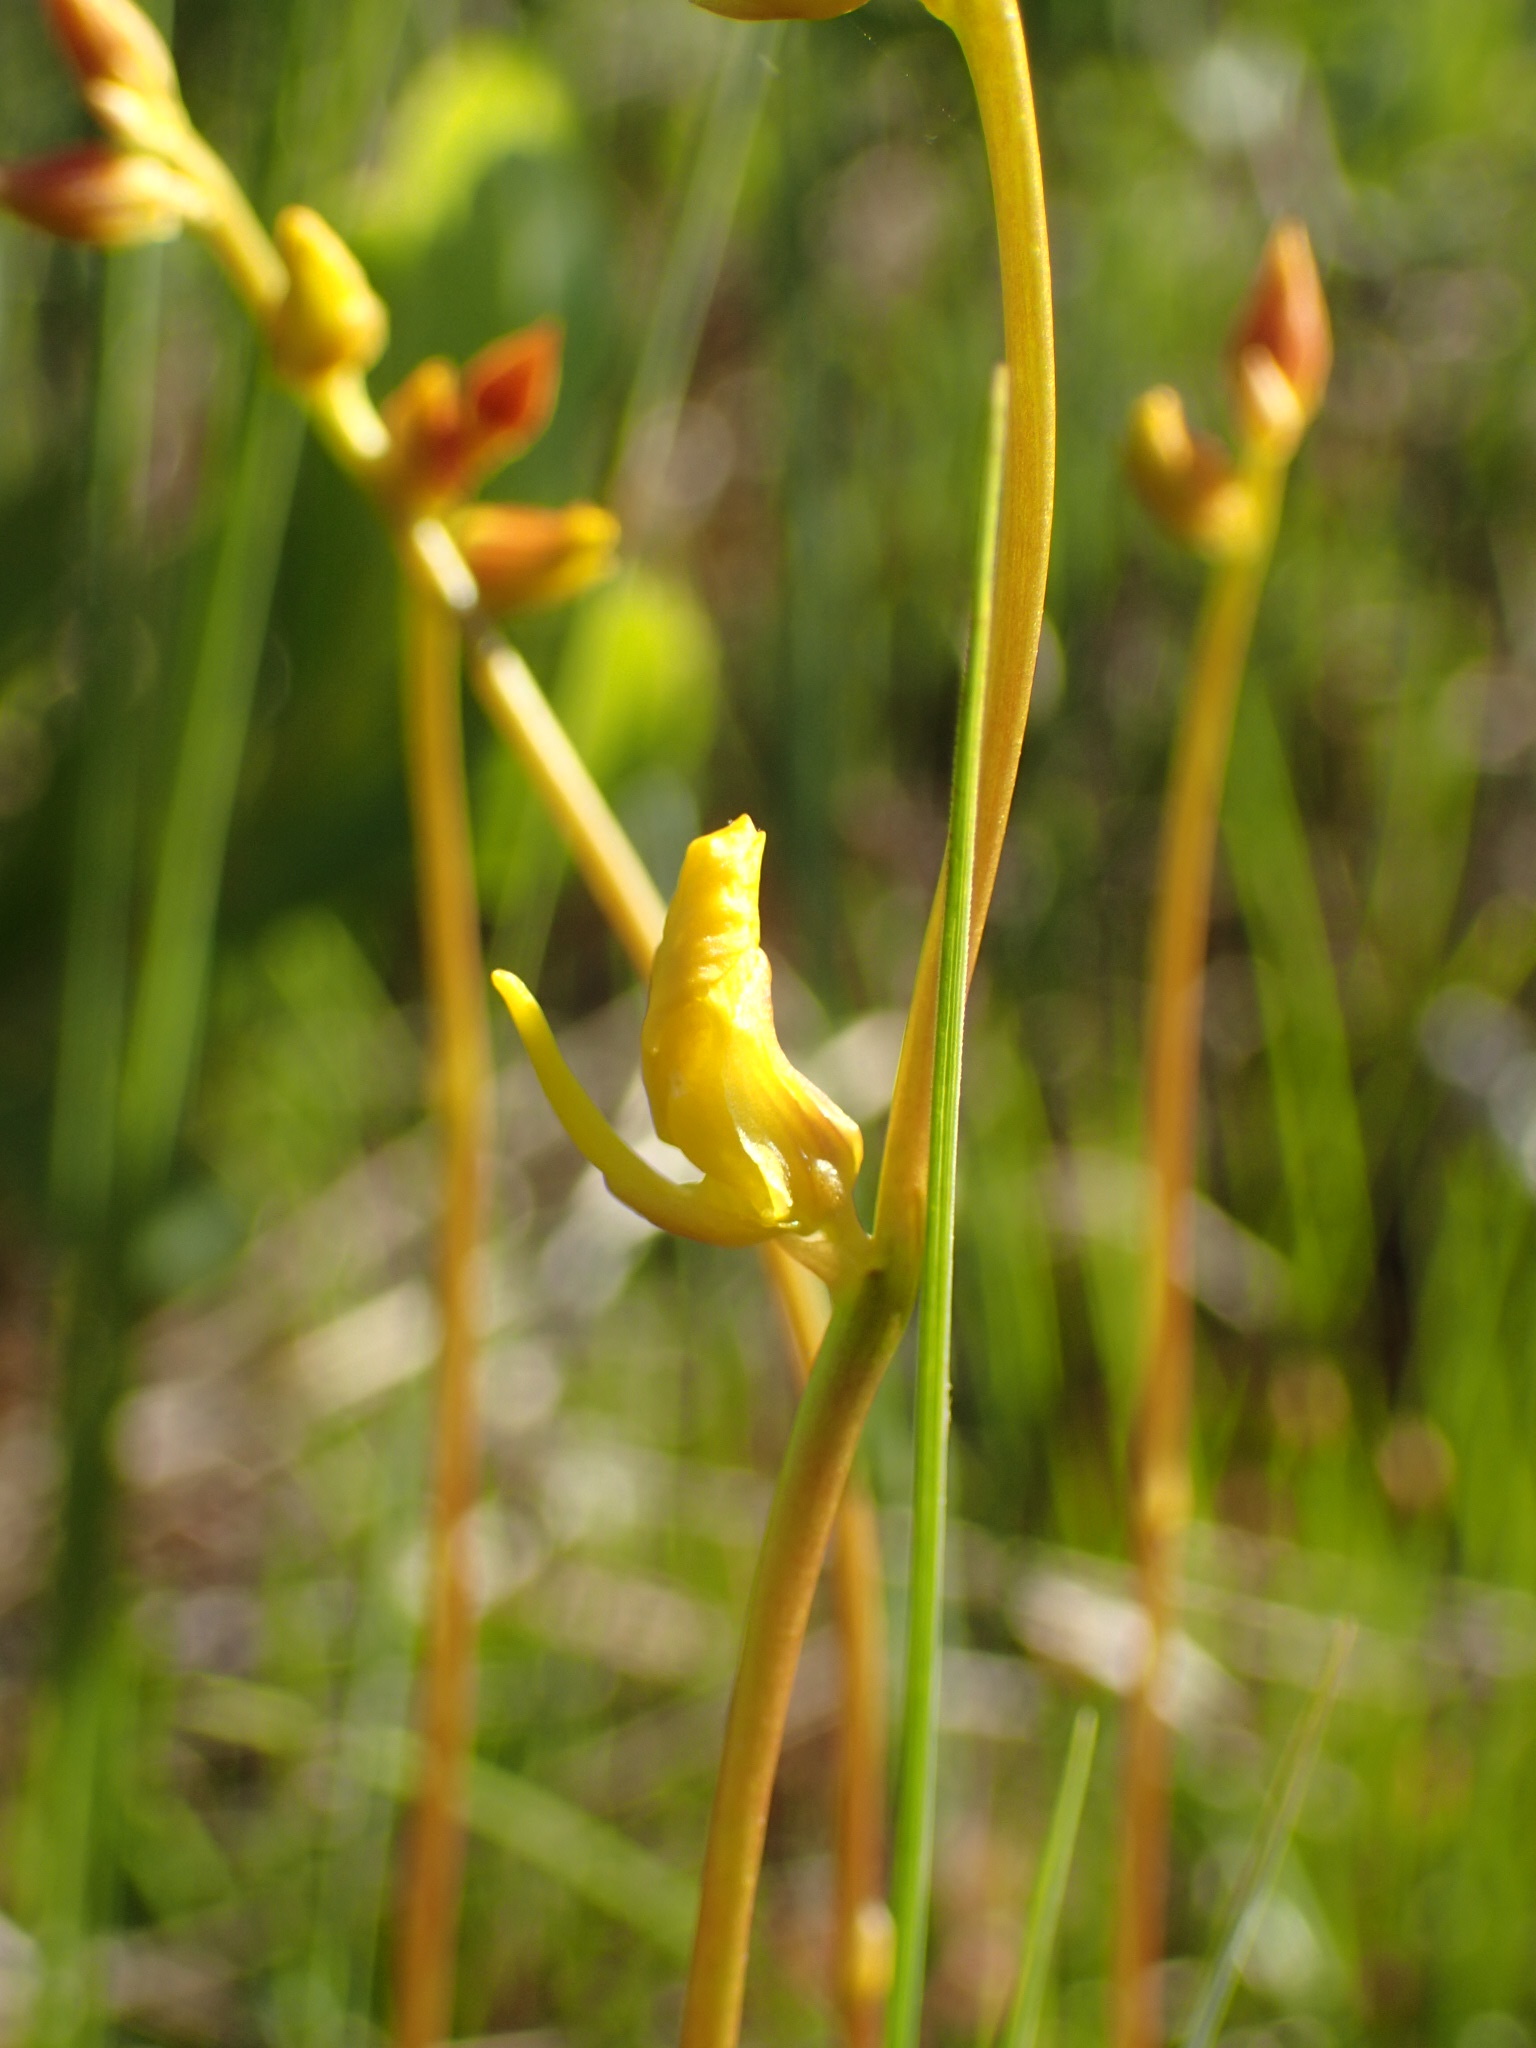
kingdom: Plantae
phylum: Tracheophyta
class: Magnoliopsida
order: Lamiales
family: Lentibulariaceae
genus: Utricularia
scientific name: Utricularia cornuta
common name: Horned bladderwort
